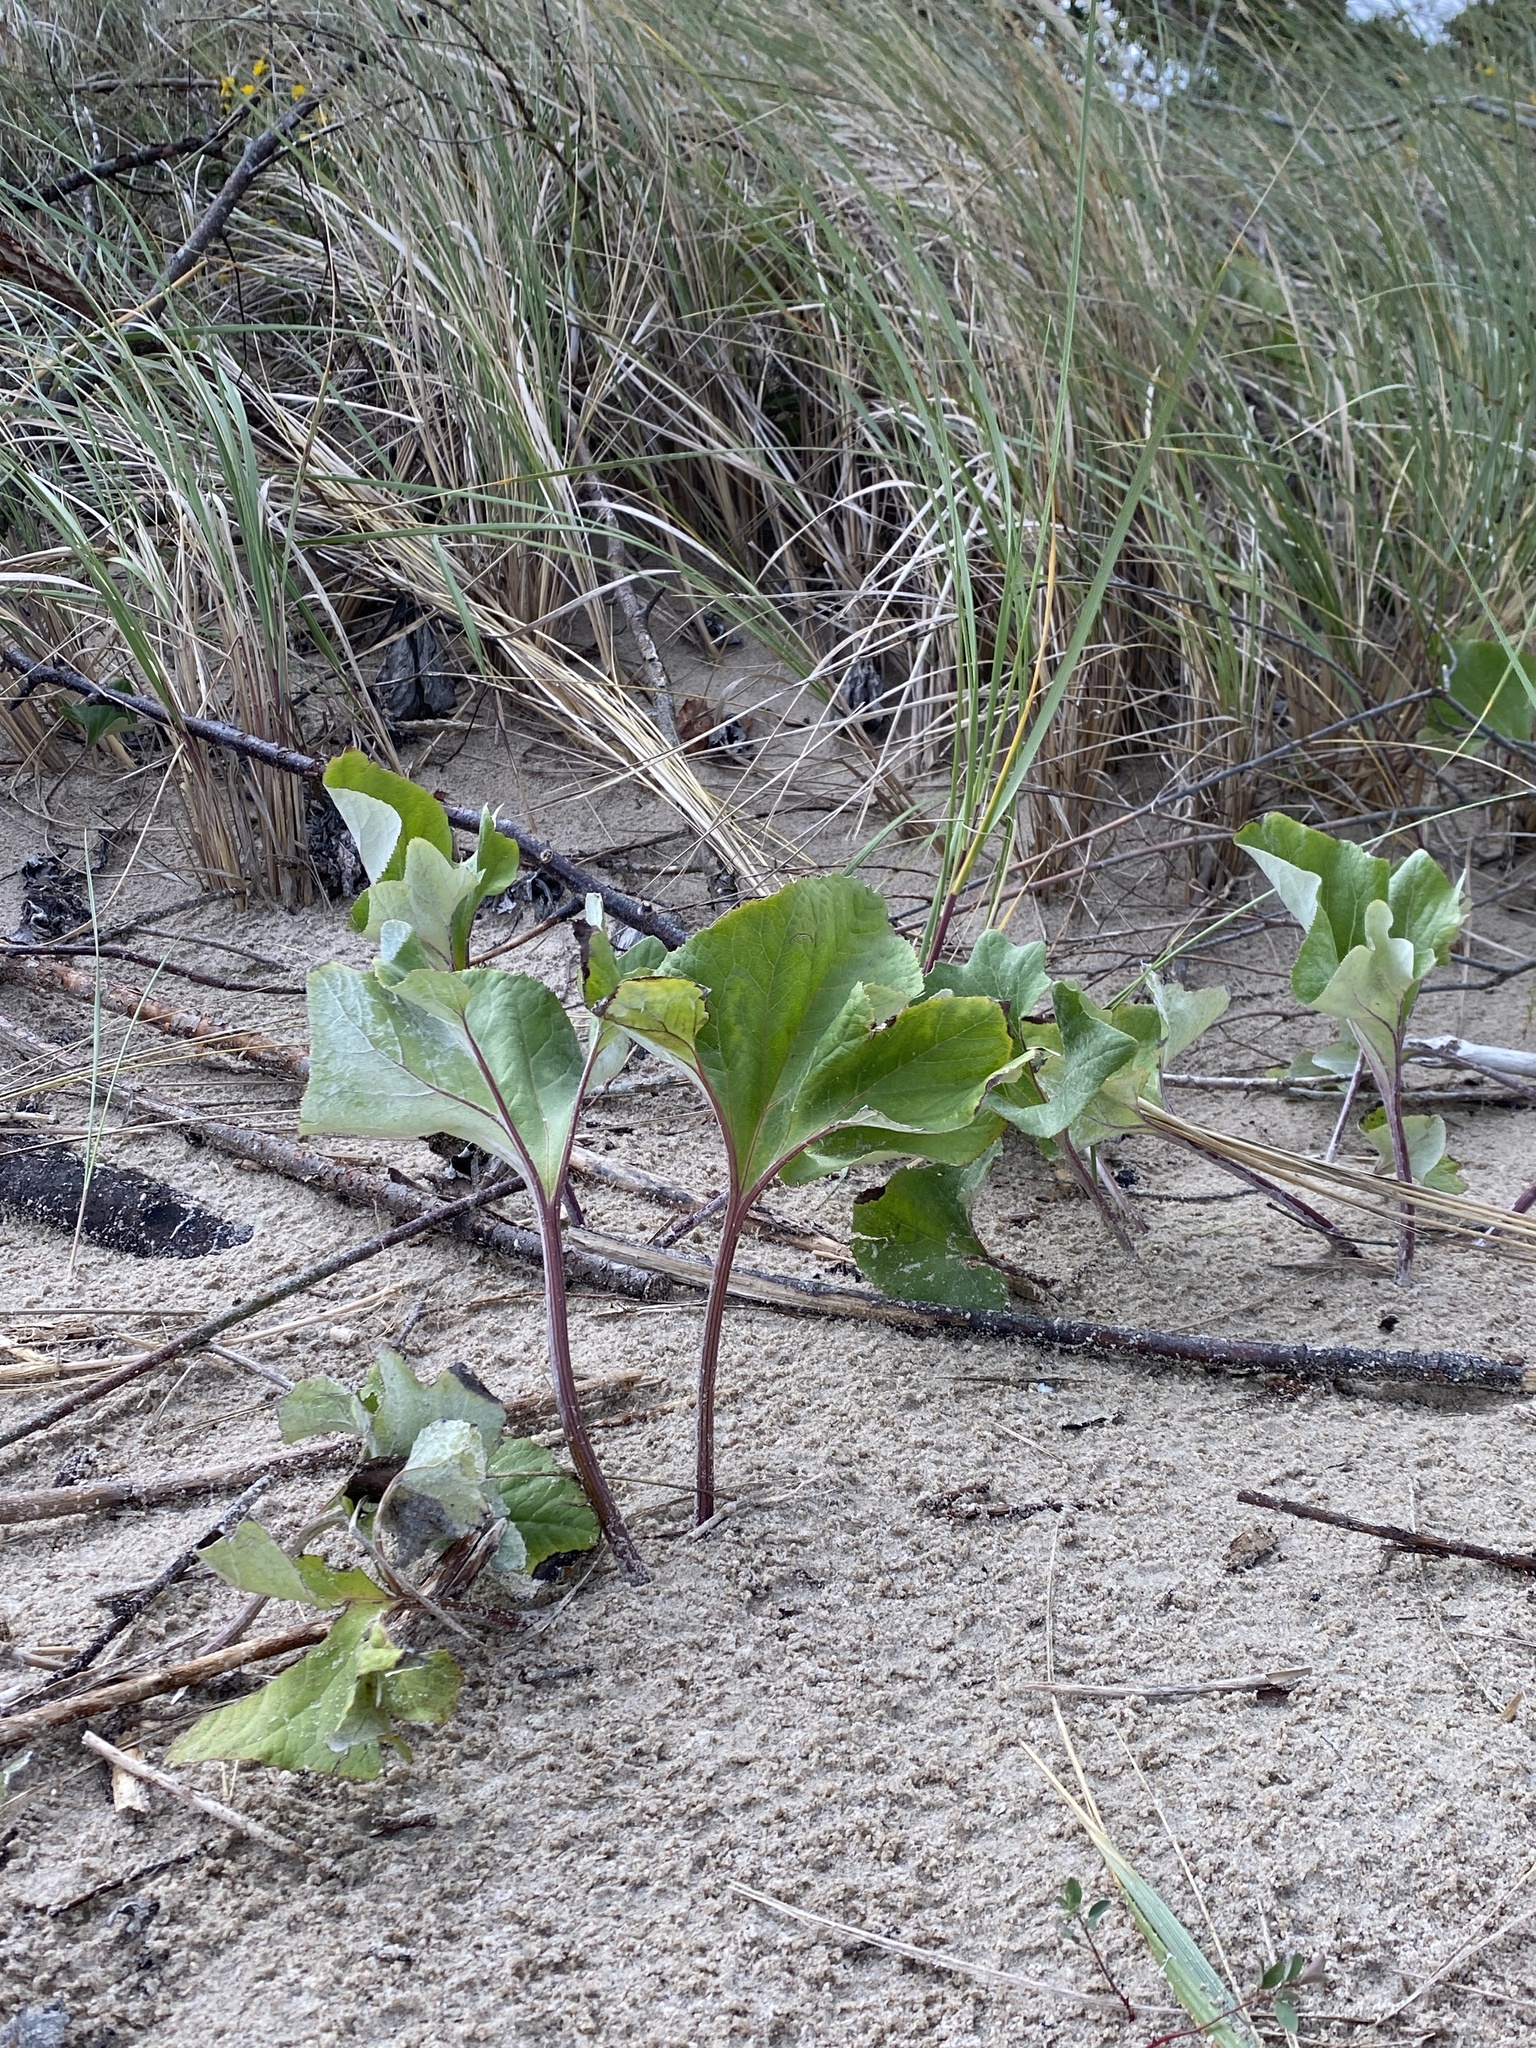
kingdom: Plantae
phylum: Tracheophyta
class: Magnoliopsida
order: Asterales
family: Asteraceae
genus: Petasites
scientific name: Petasites spurius
